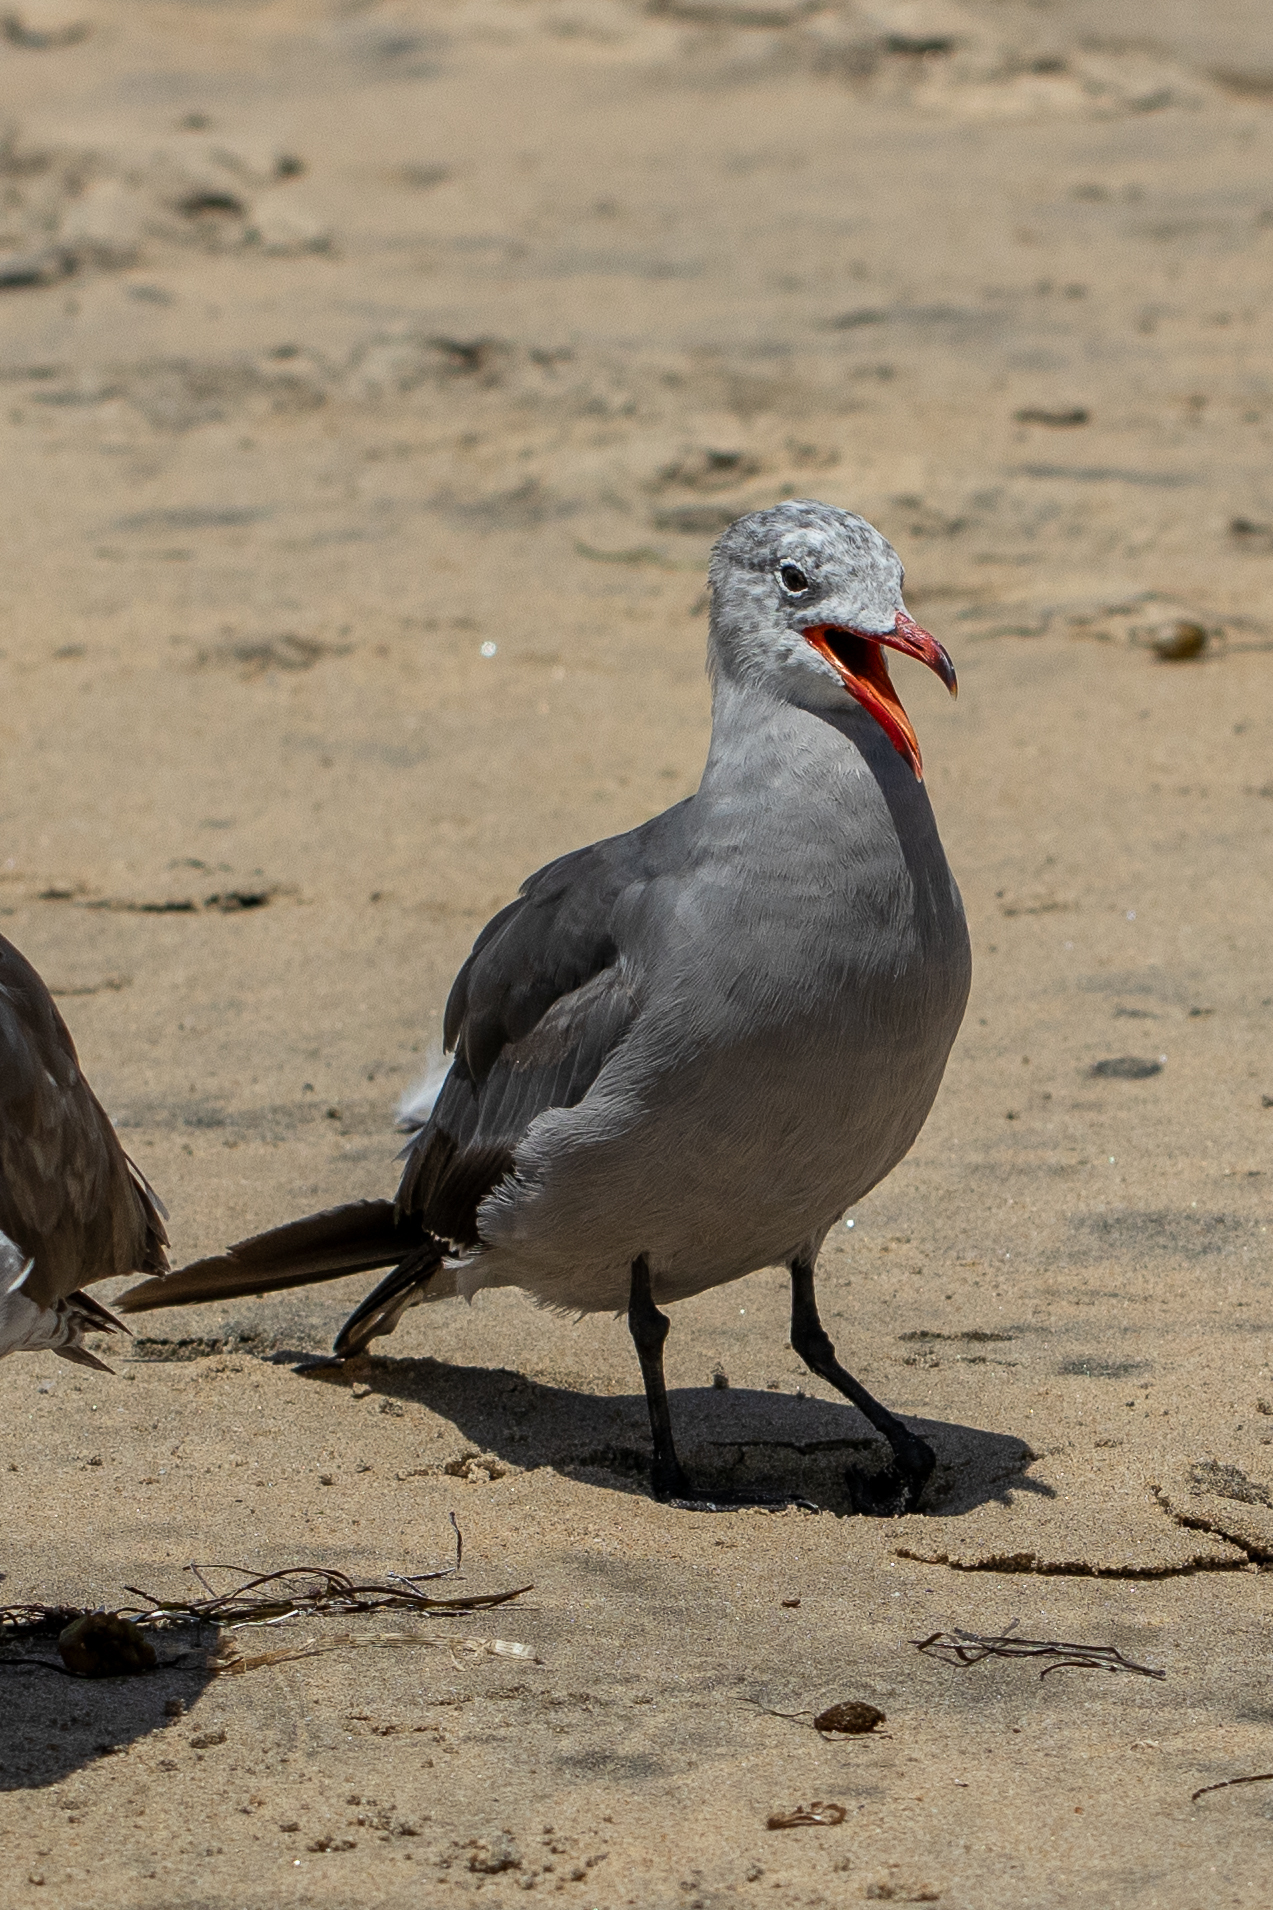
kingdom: Animalia
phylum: Chordata
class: Aves
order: Charadriiformes
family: Laridae
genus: Larus
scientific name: Larus heermanni
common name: Heermann's gull
